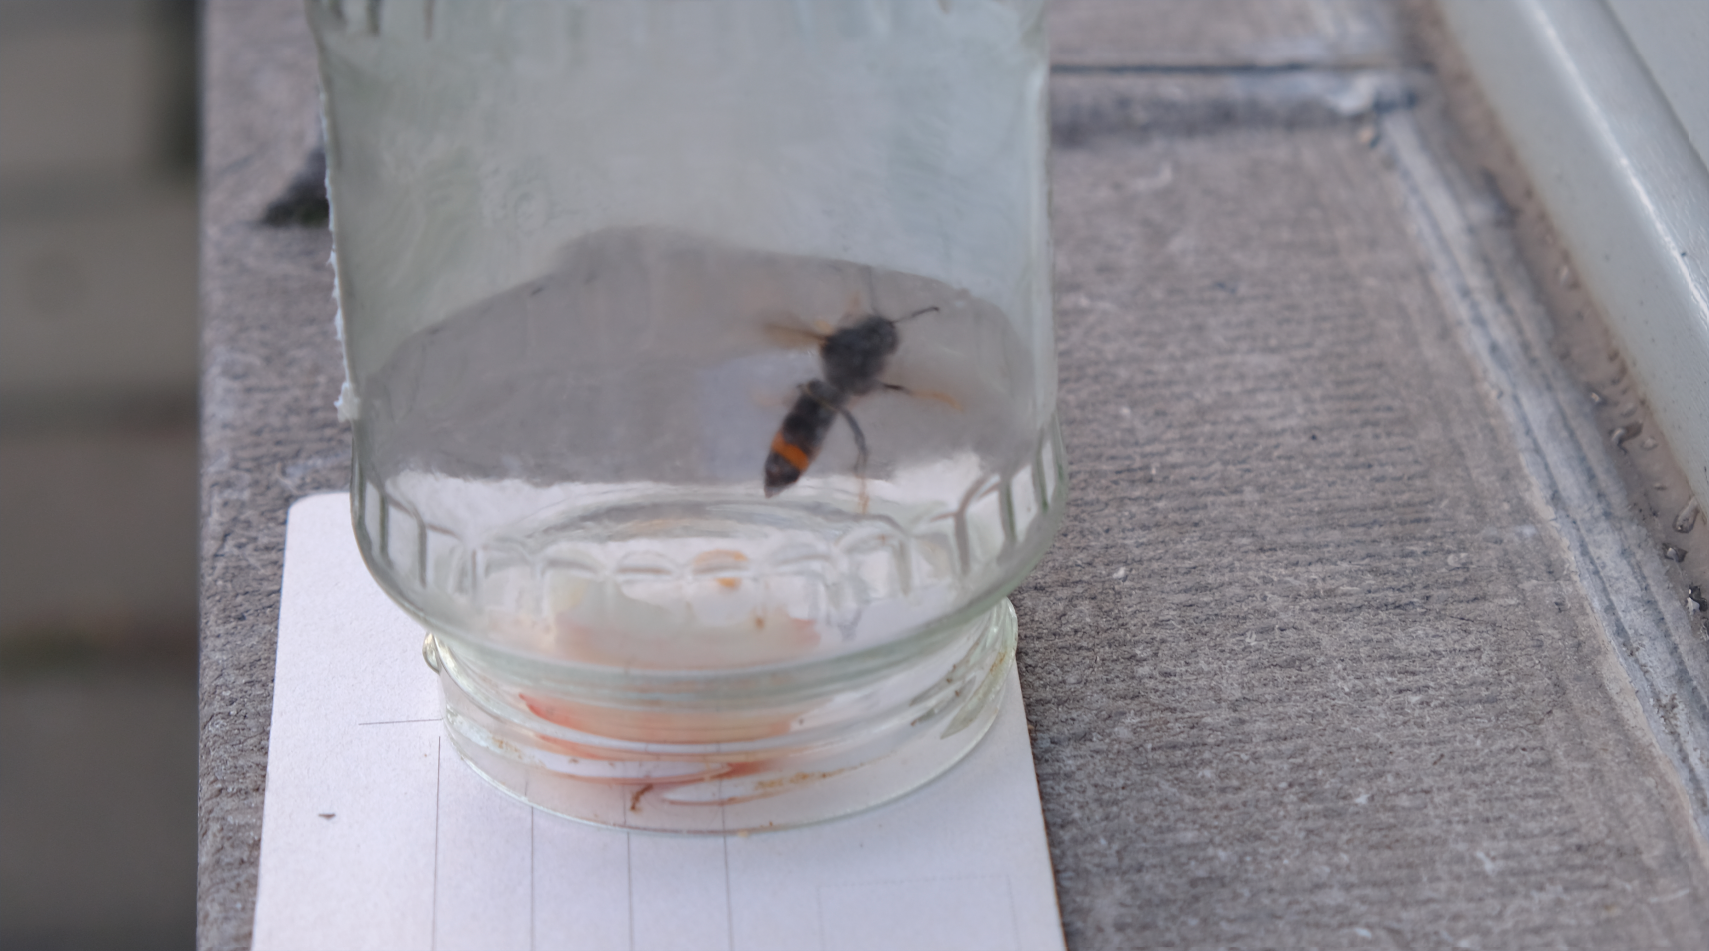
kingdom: Animalia
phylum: Arthropoda
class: Insecta
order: Hymenoptera
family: Vespidae
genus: Vespa
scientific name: Vespa velutina
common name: Asian hornet
